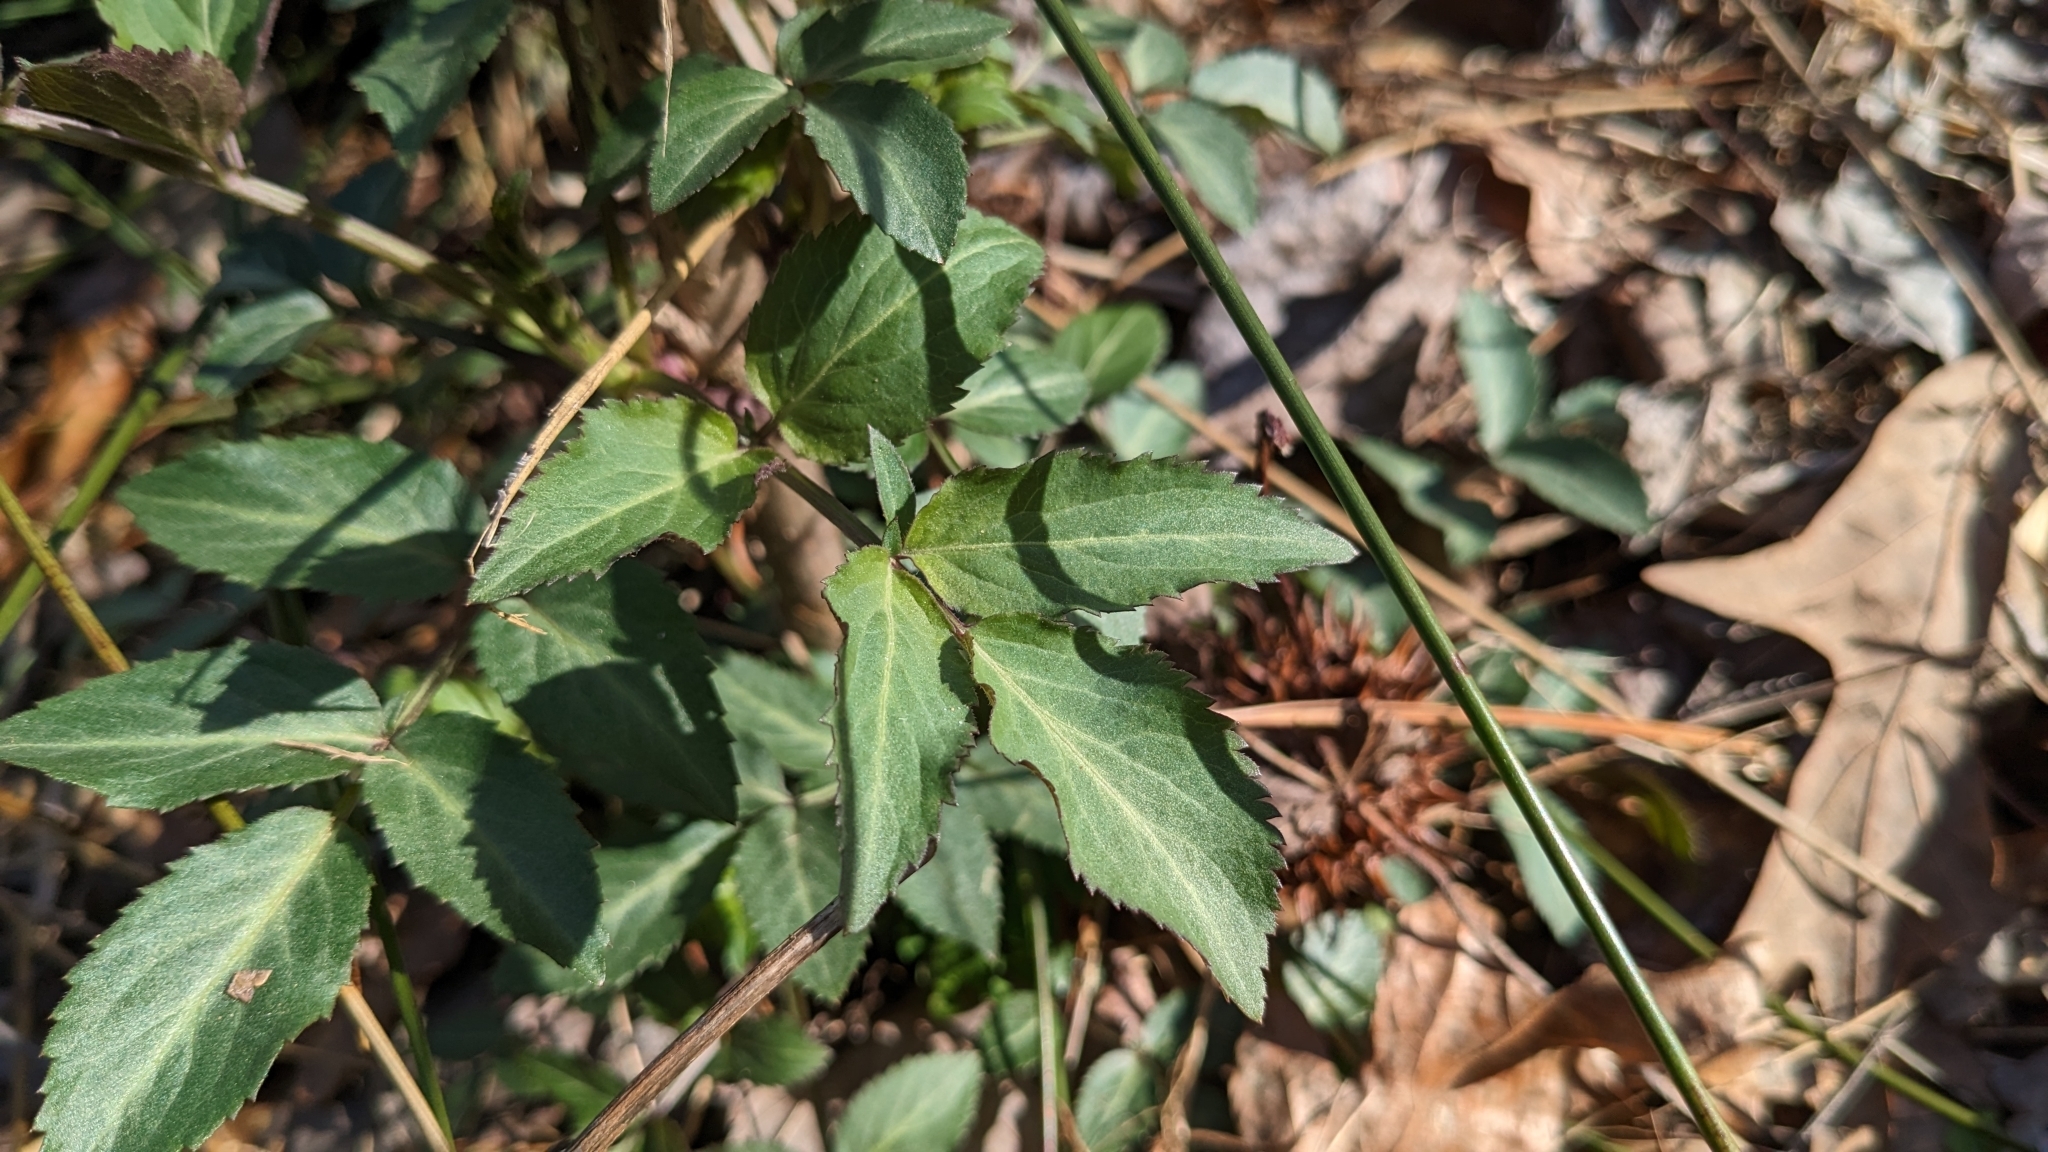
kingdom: Plantae
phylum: Tracheophyta
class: Magnoliopsida
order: Dipsacales
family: Viburnaceae
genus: Sambucus
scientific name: Sambucus canadensis
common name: American elder
